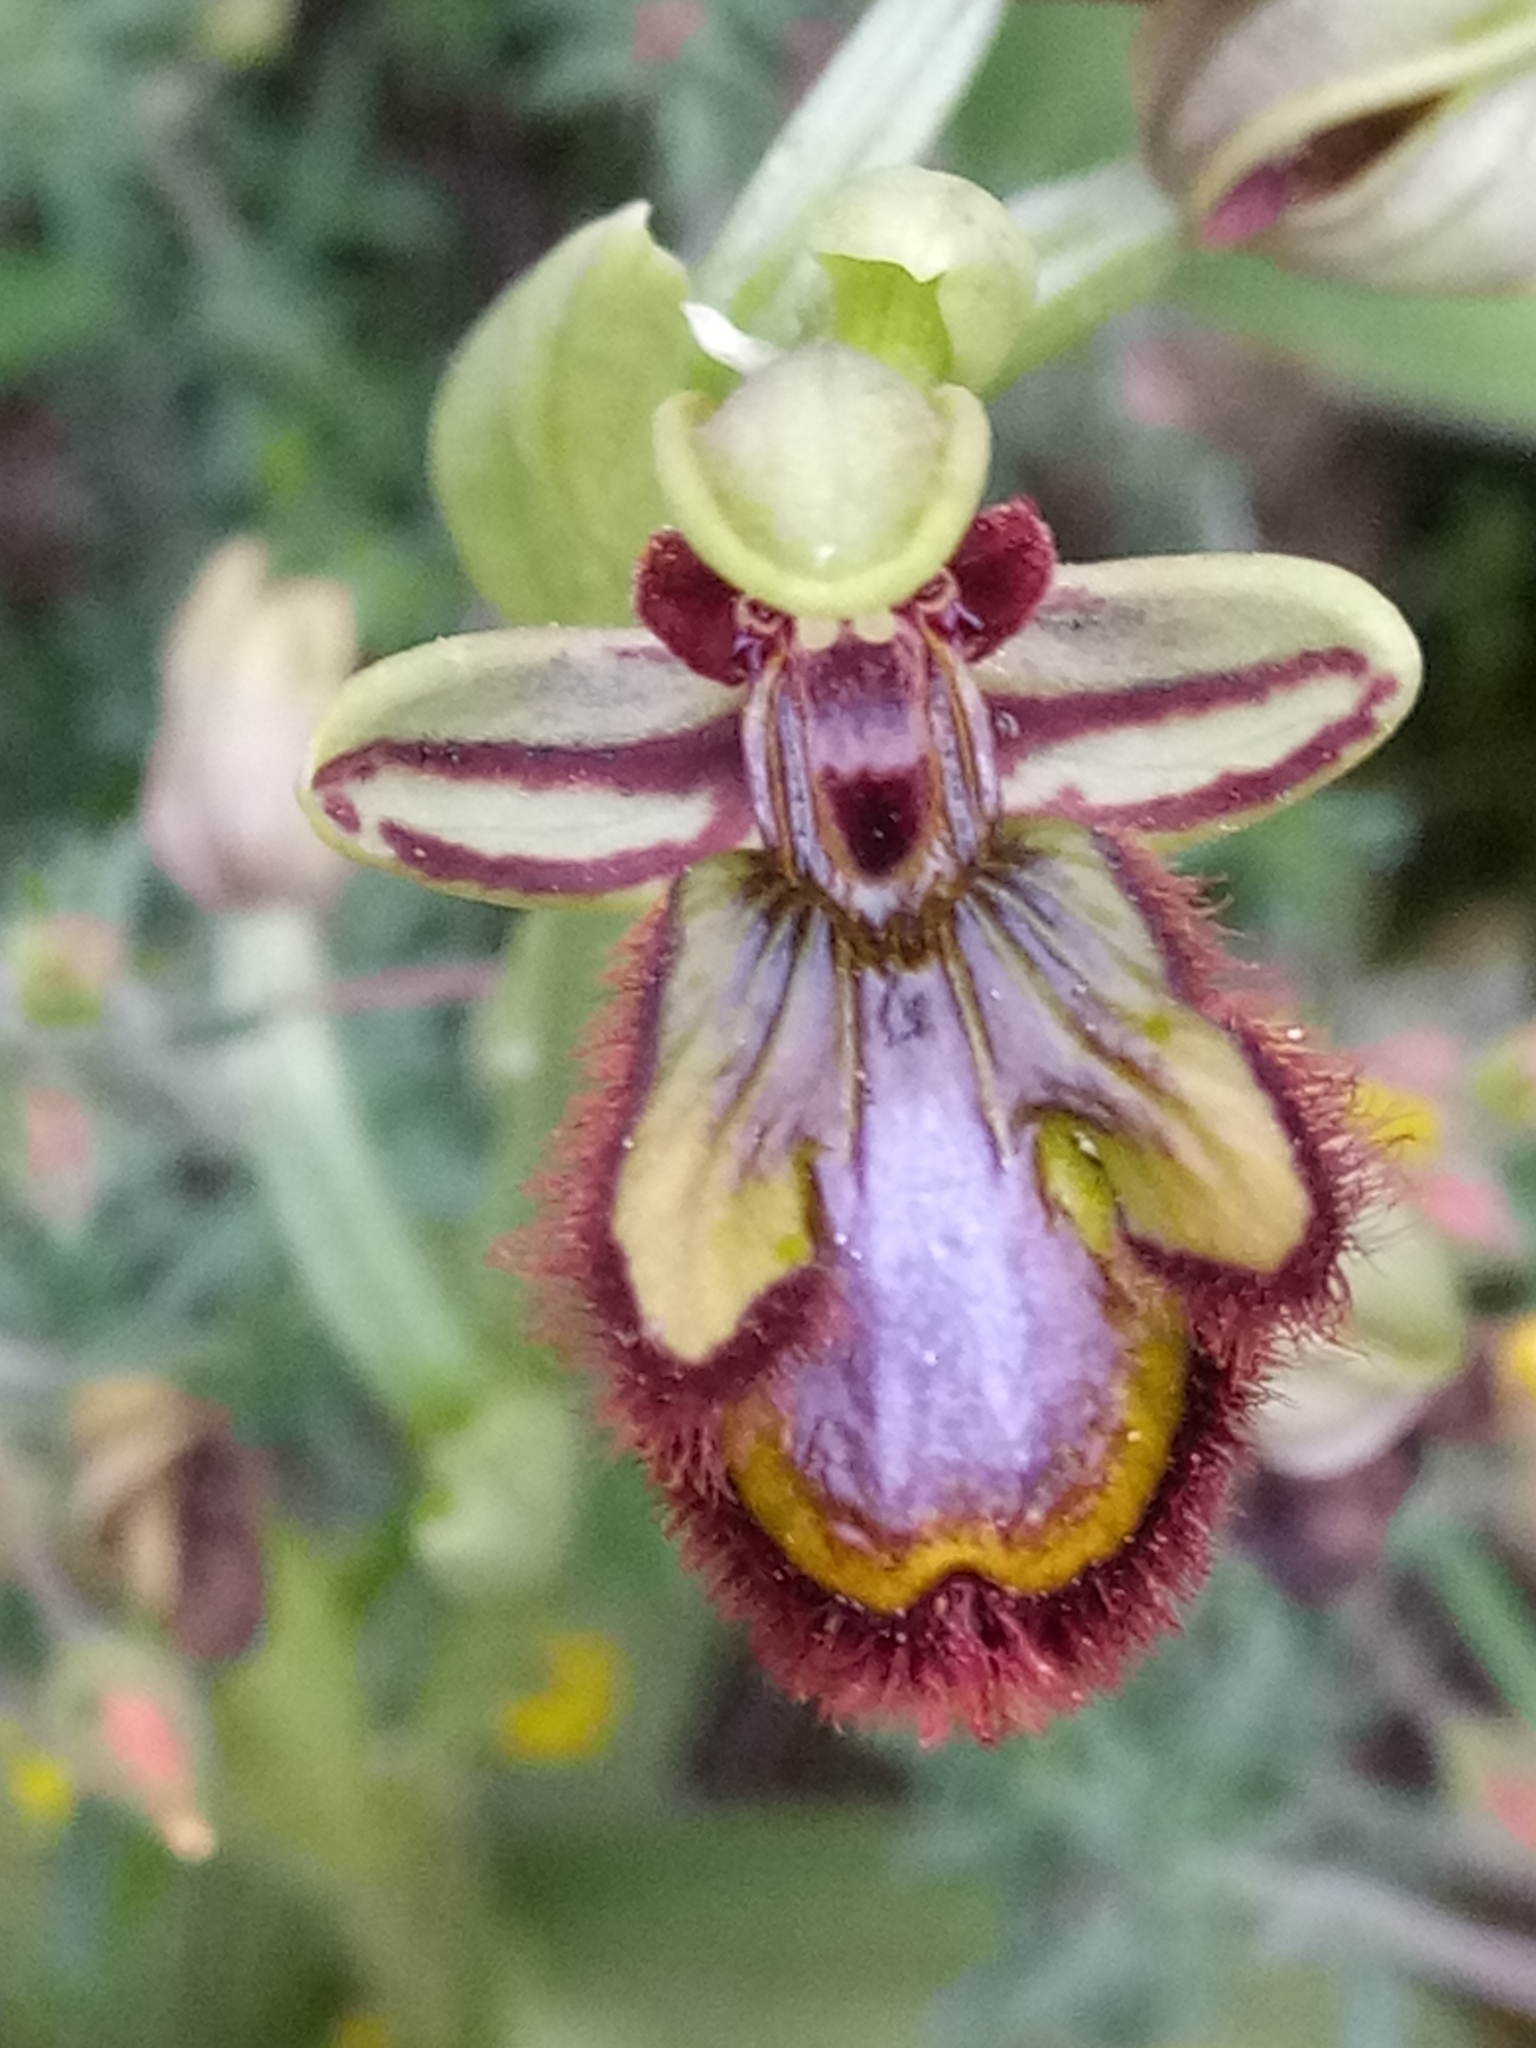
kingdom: Plantae
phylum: Tracheophyta
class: Liliopsida
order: Asparagales
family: Orchidaceae
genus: Ophrys
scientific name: Ophrys speculum
